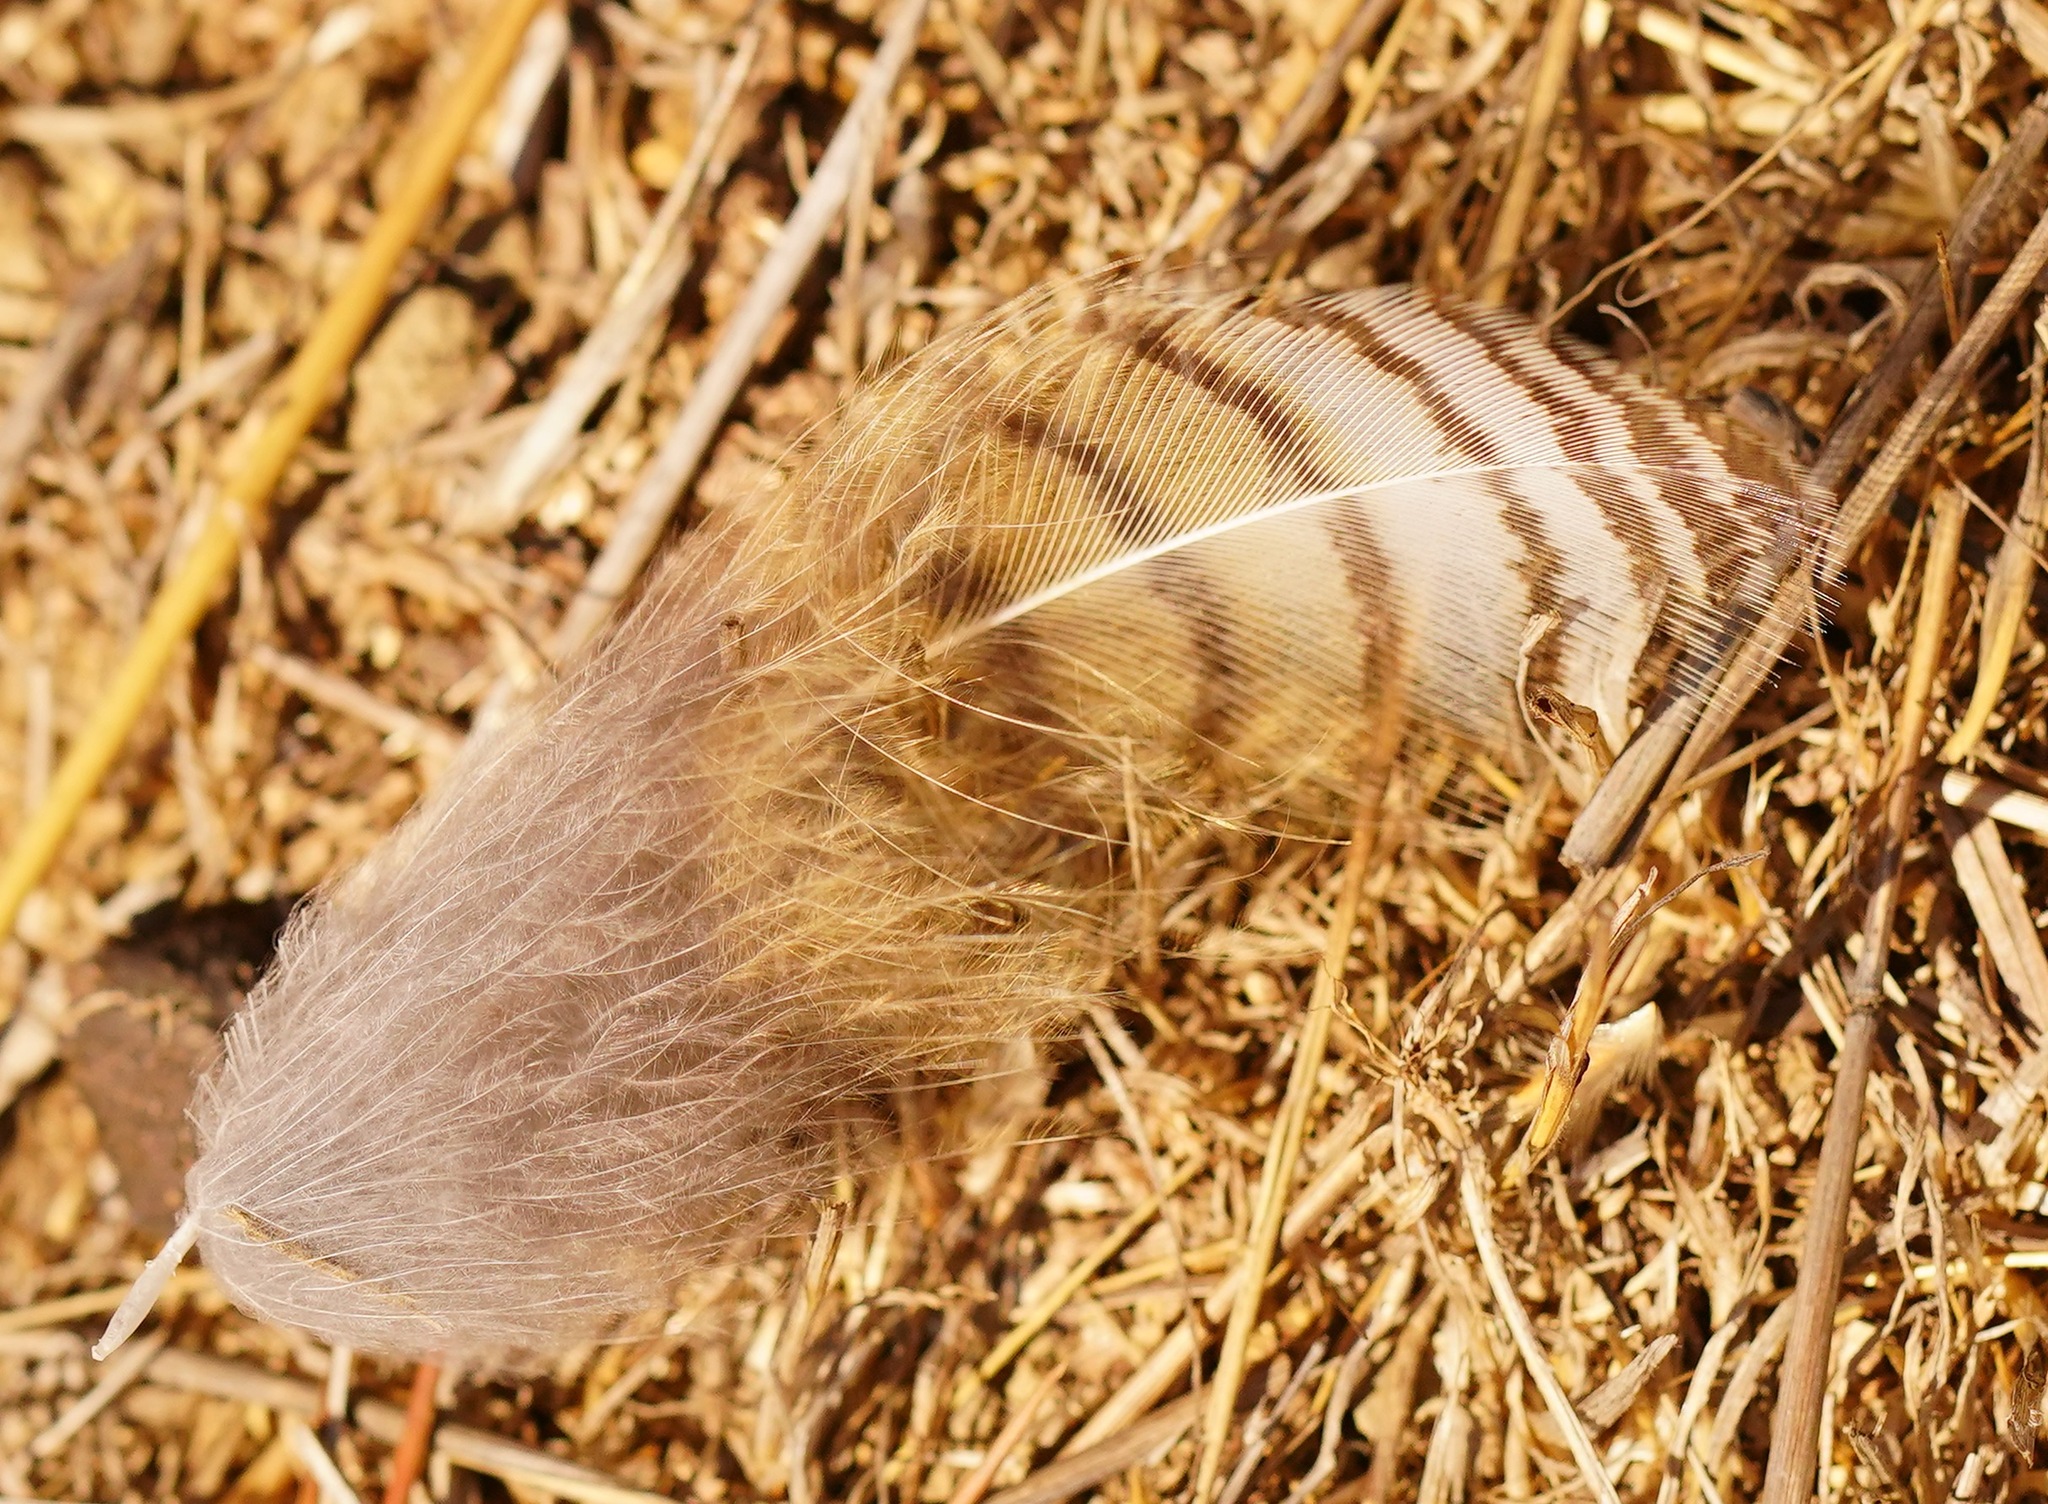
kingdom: Animalia
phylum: Chordata
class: Aves
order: Strigiformes
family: Strigidae
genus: Bubo
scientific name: Bubo virginianus
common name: Great horned owl
